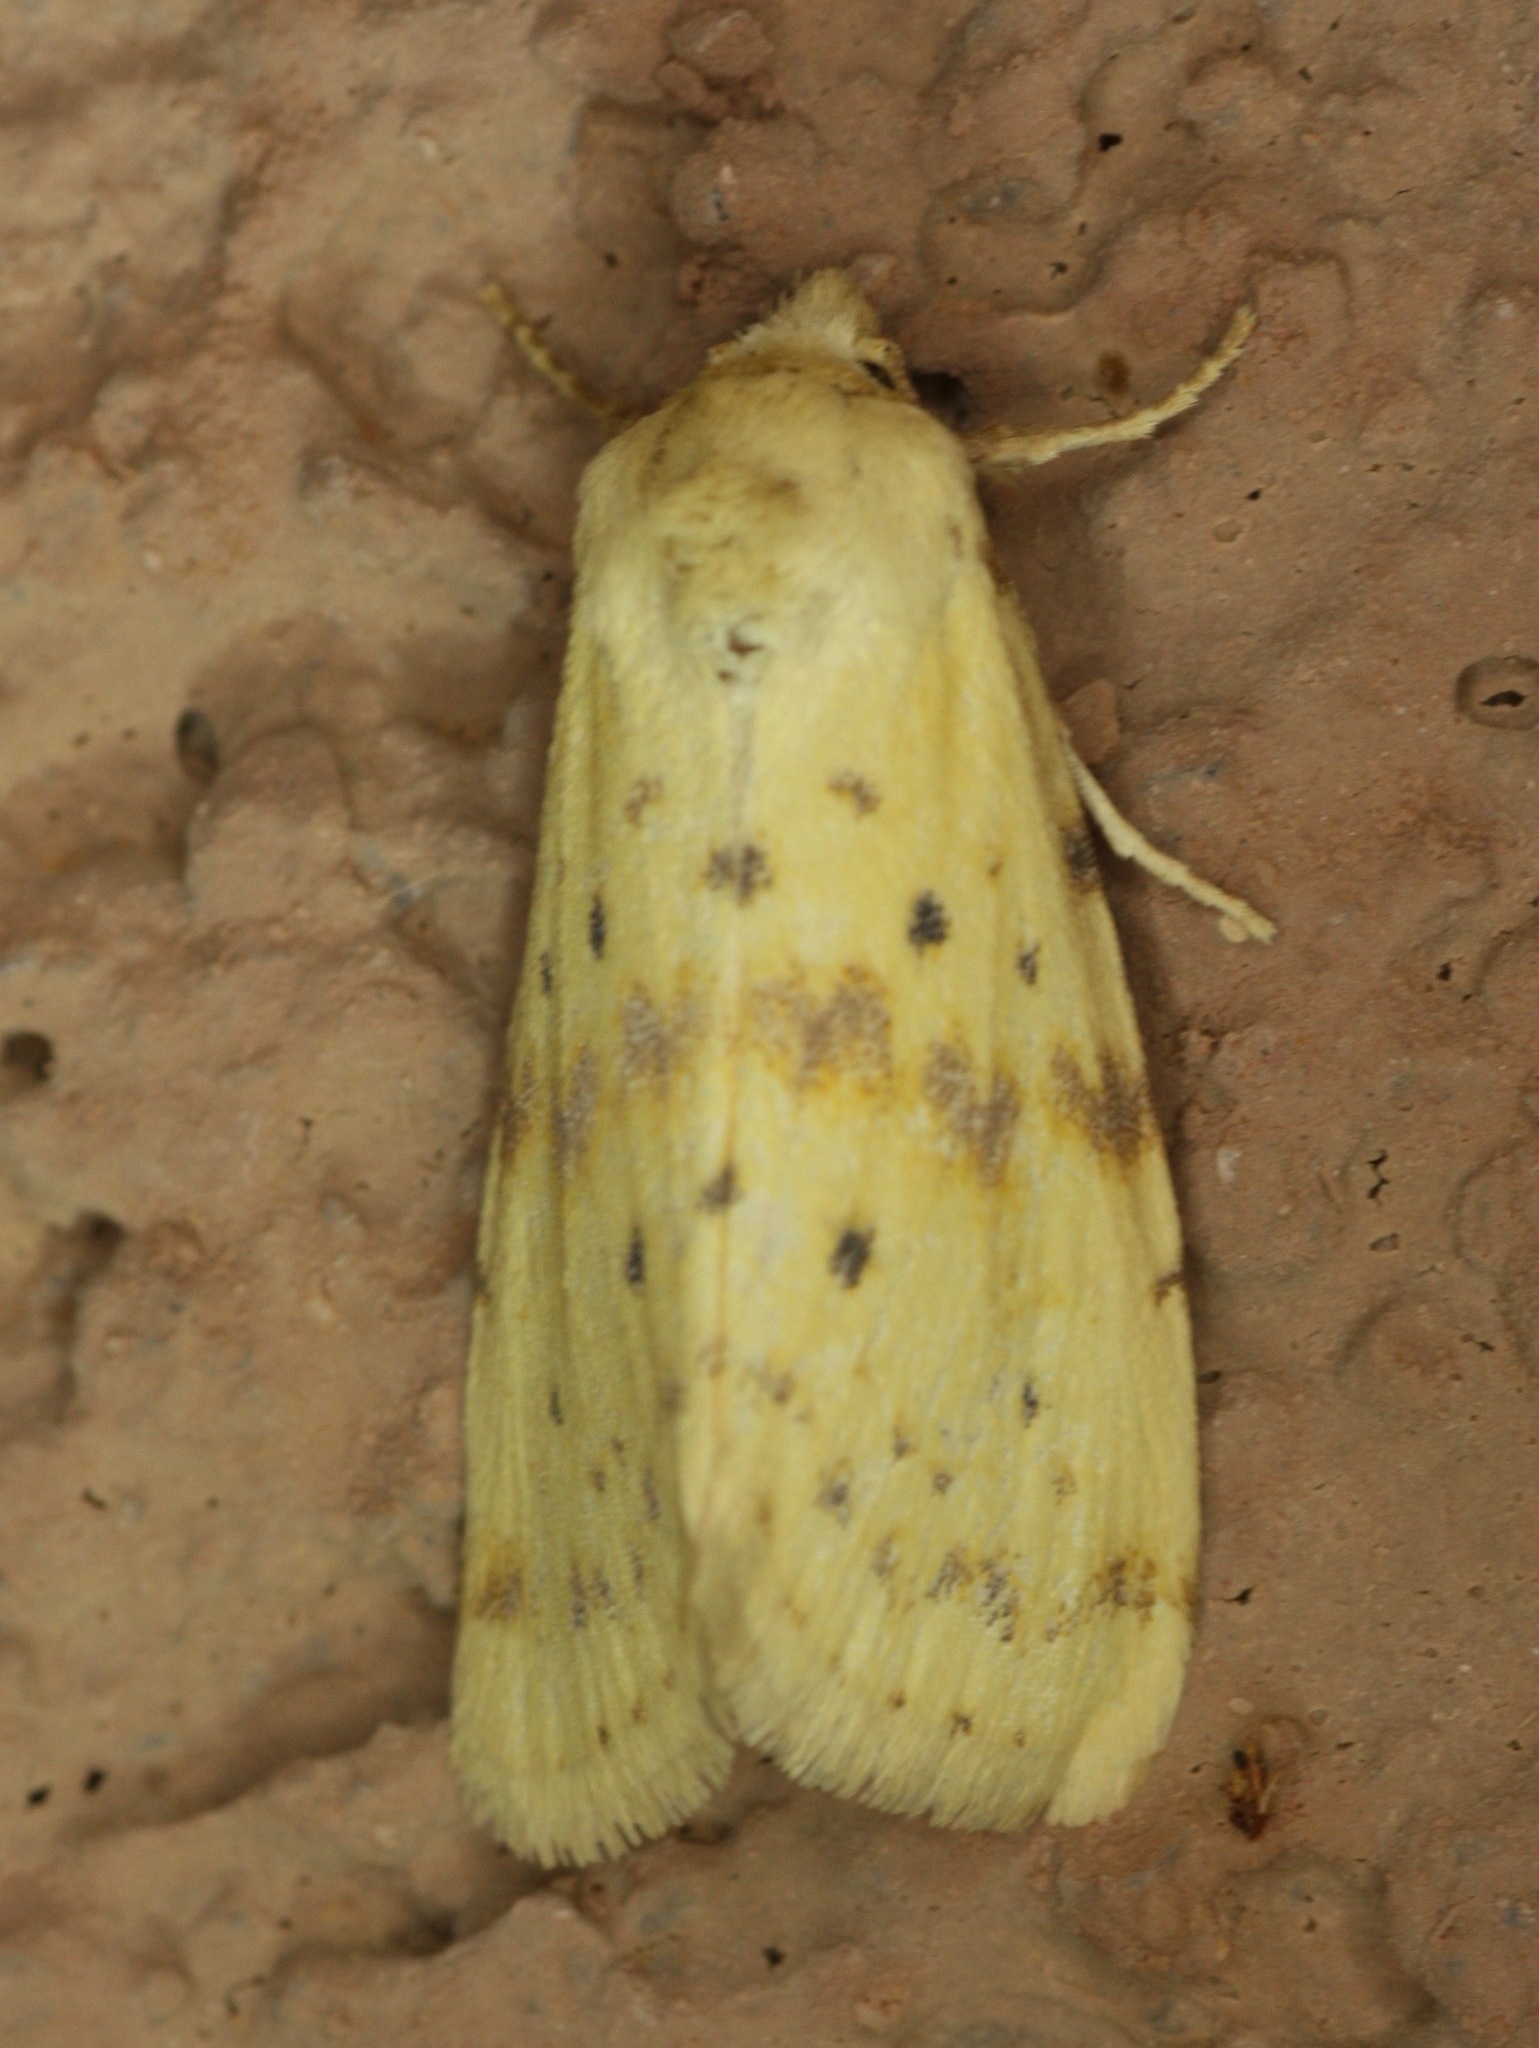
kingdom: Animalia
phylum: Arthropoda
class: Insecta
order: Lepidoptera
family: Noctuidae
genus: Azenia
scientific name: Azenia implora
